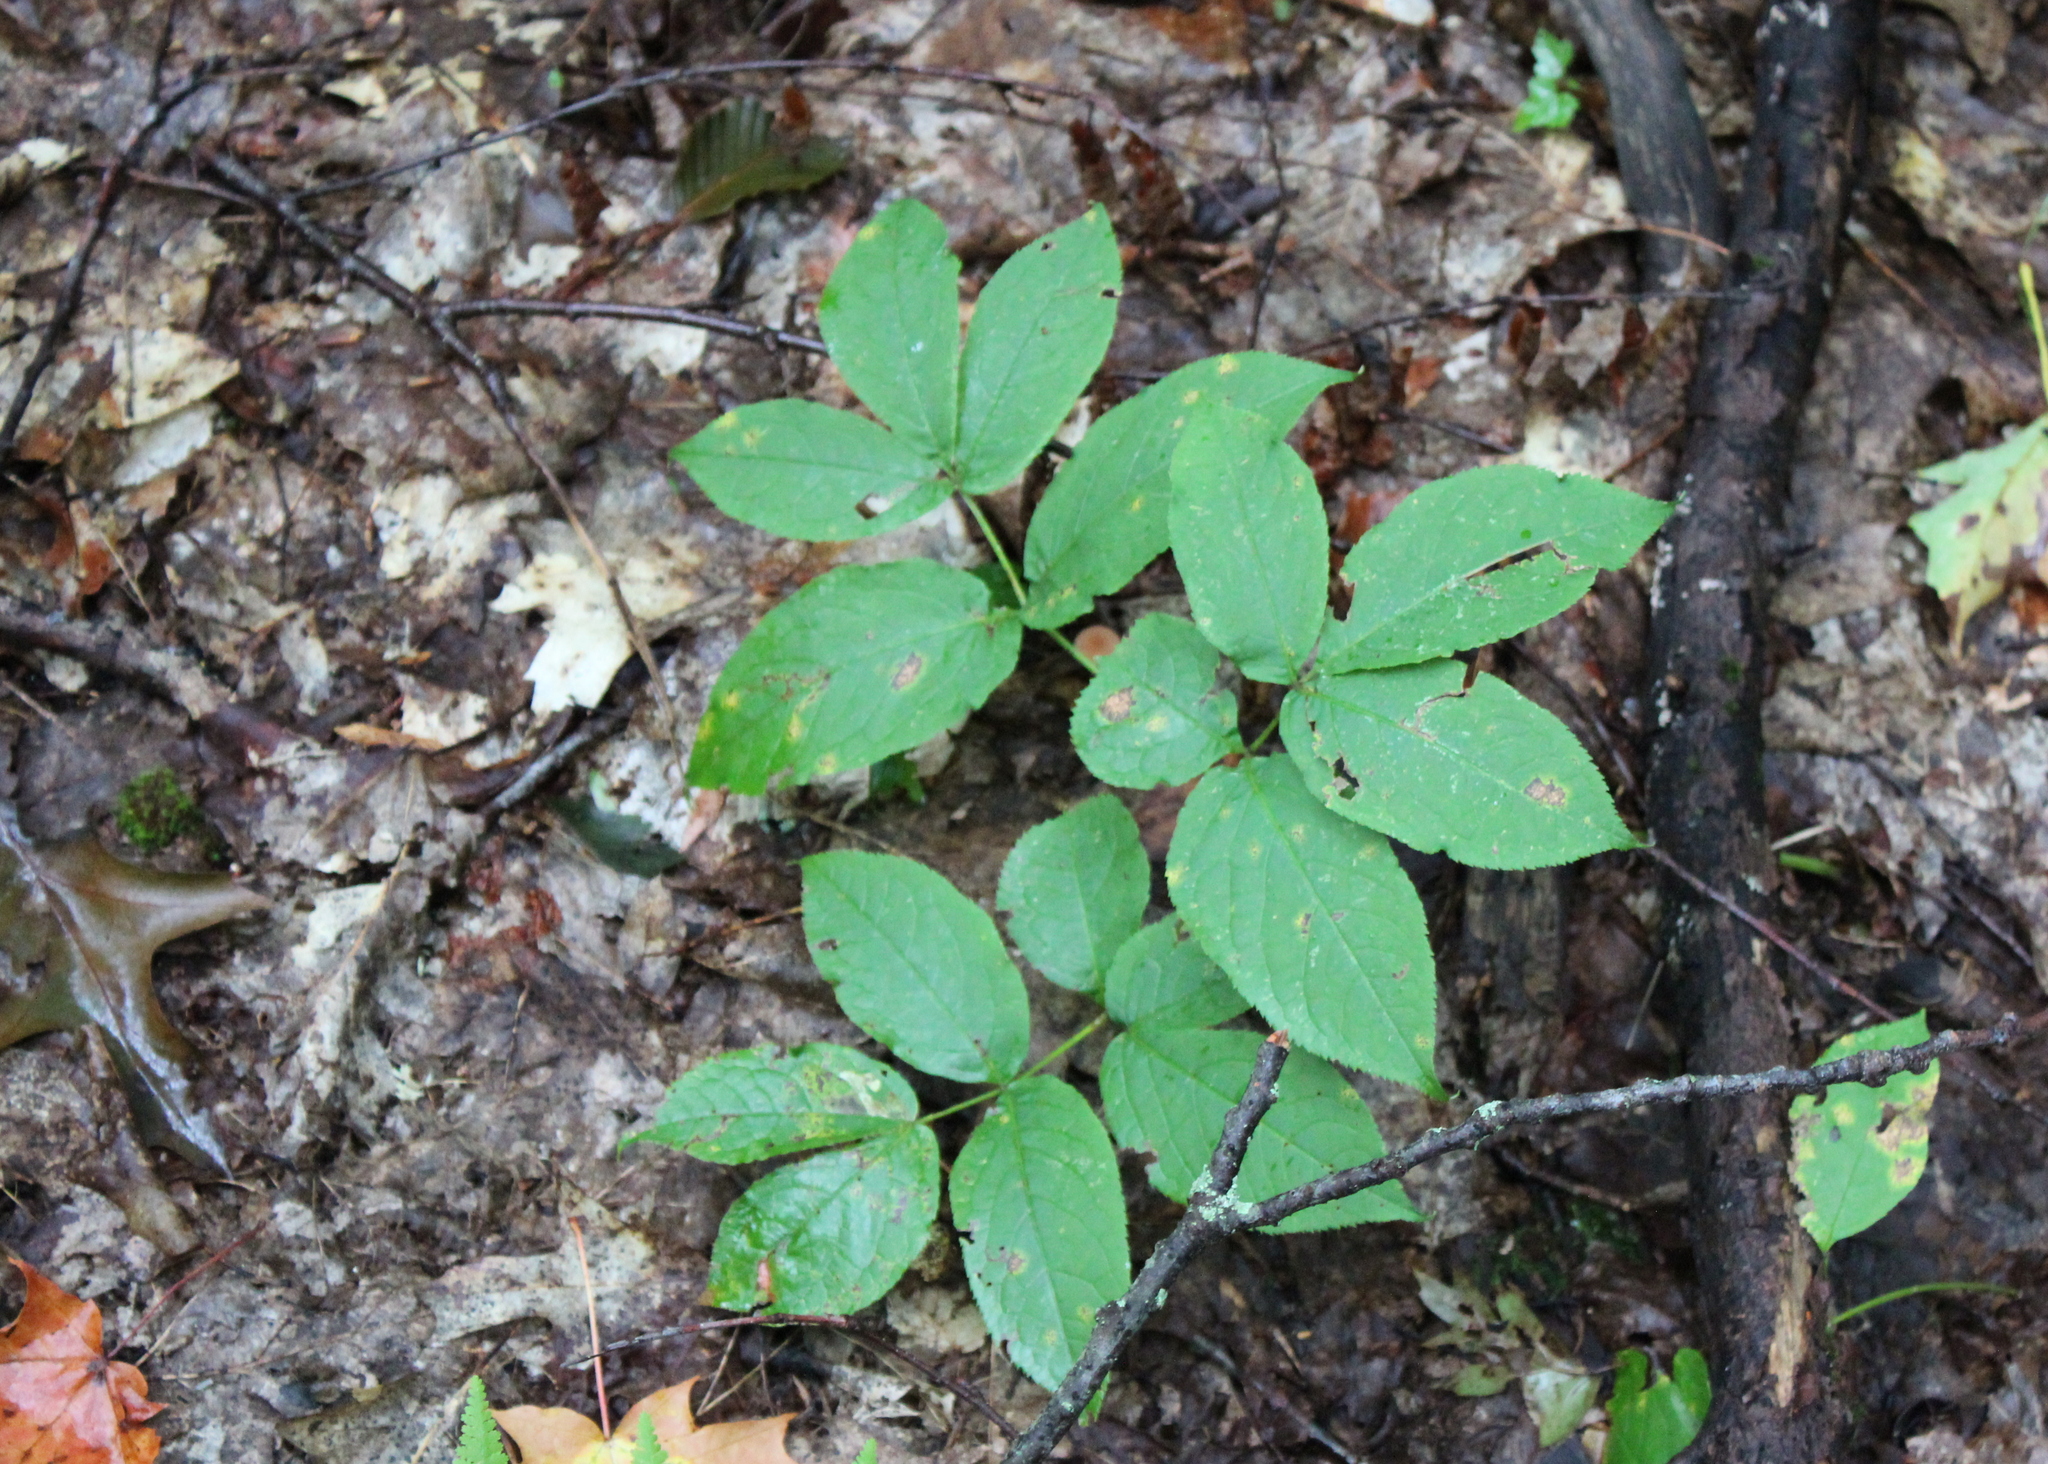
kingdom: Plantae
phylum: Tracheophyta
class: Magnoliopsida
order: Apiales
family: Araliaceae
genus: Aralia
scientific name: Aralia nudicaulis
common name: Wild sarsaparilla
